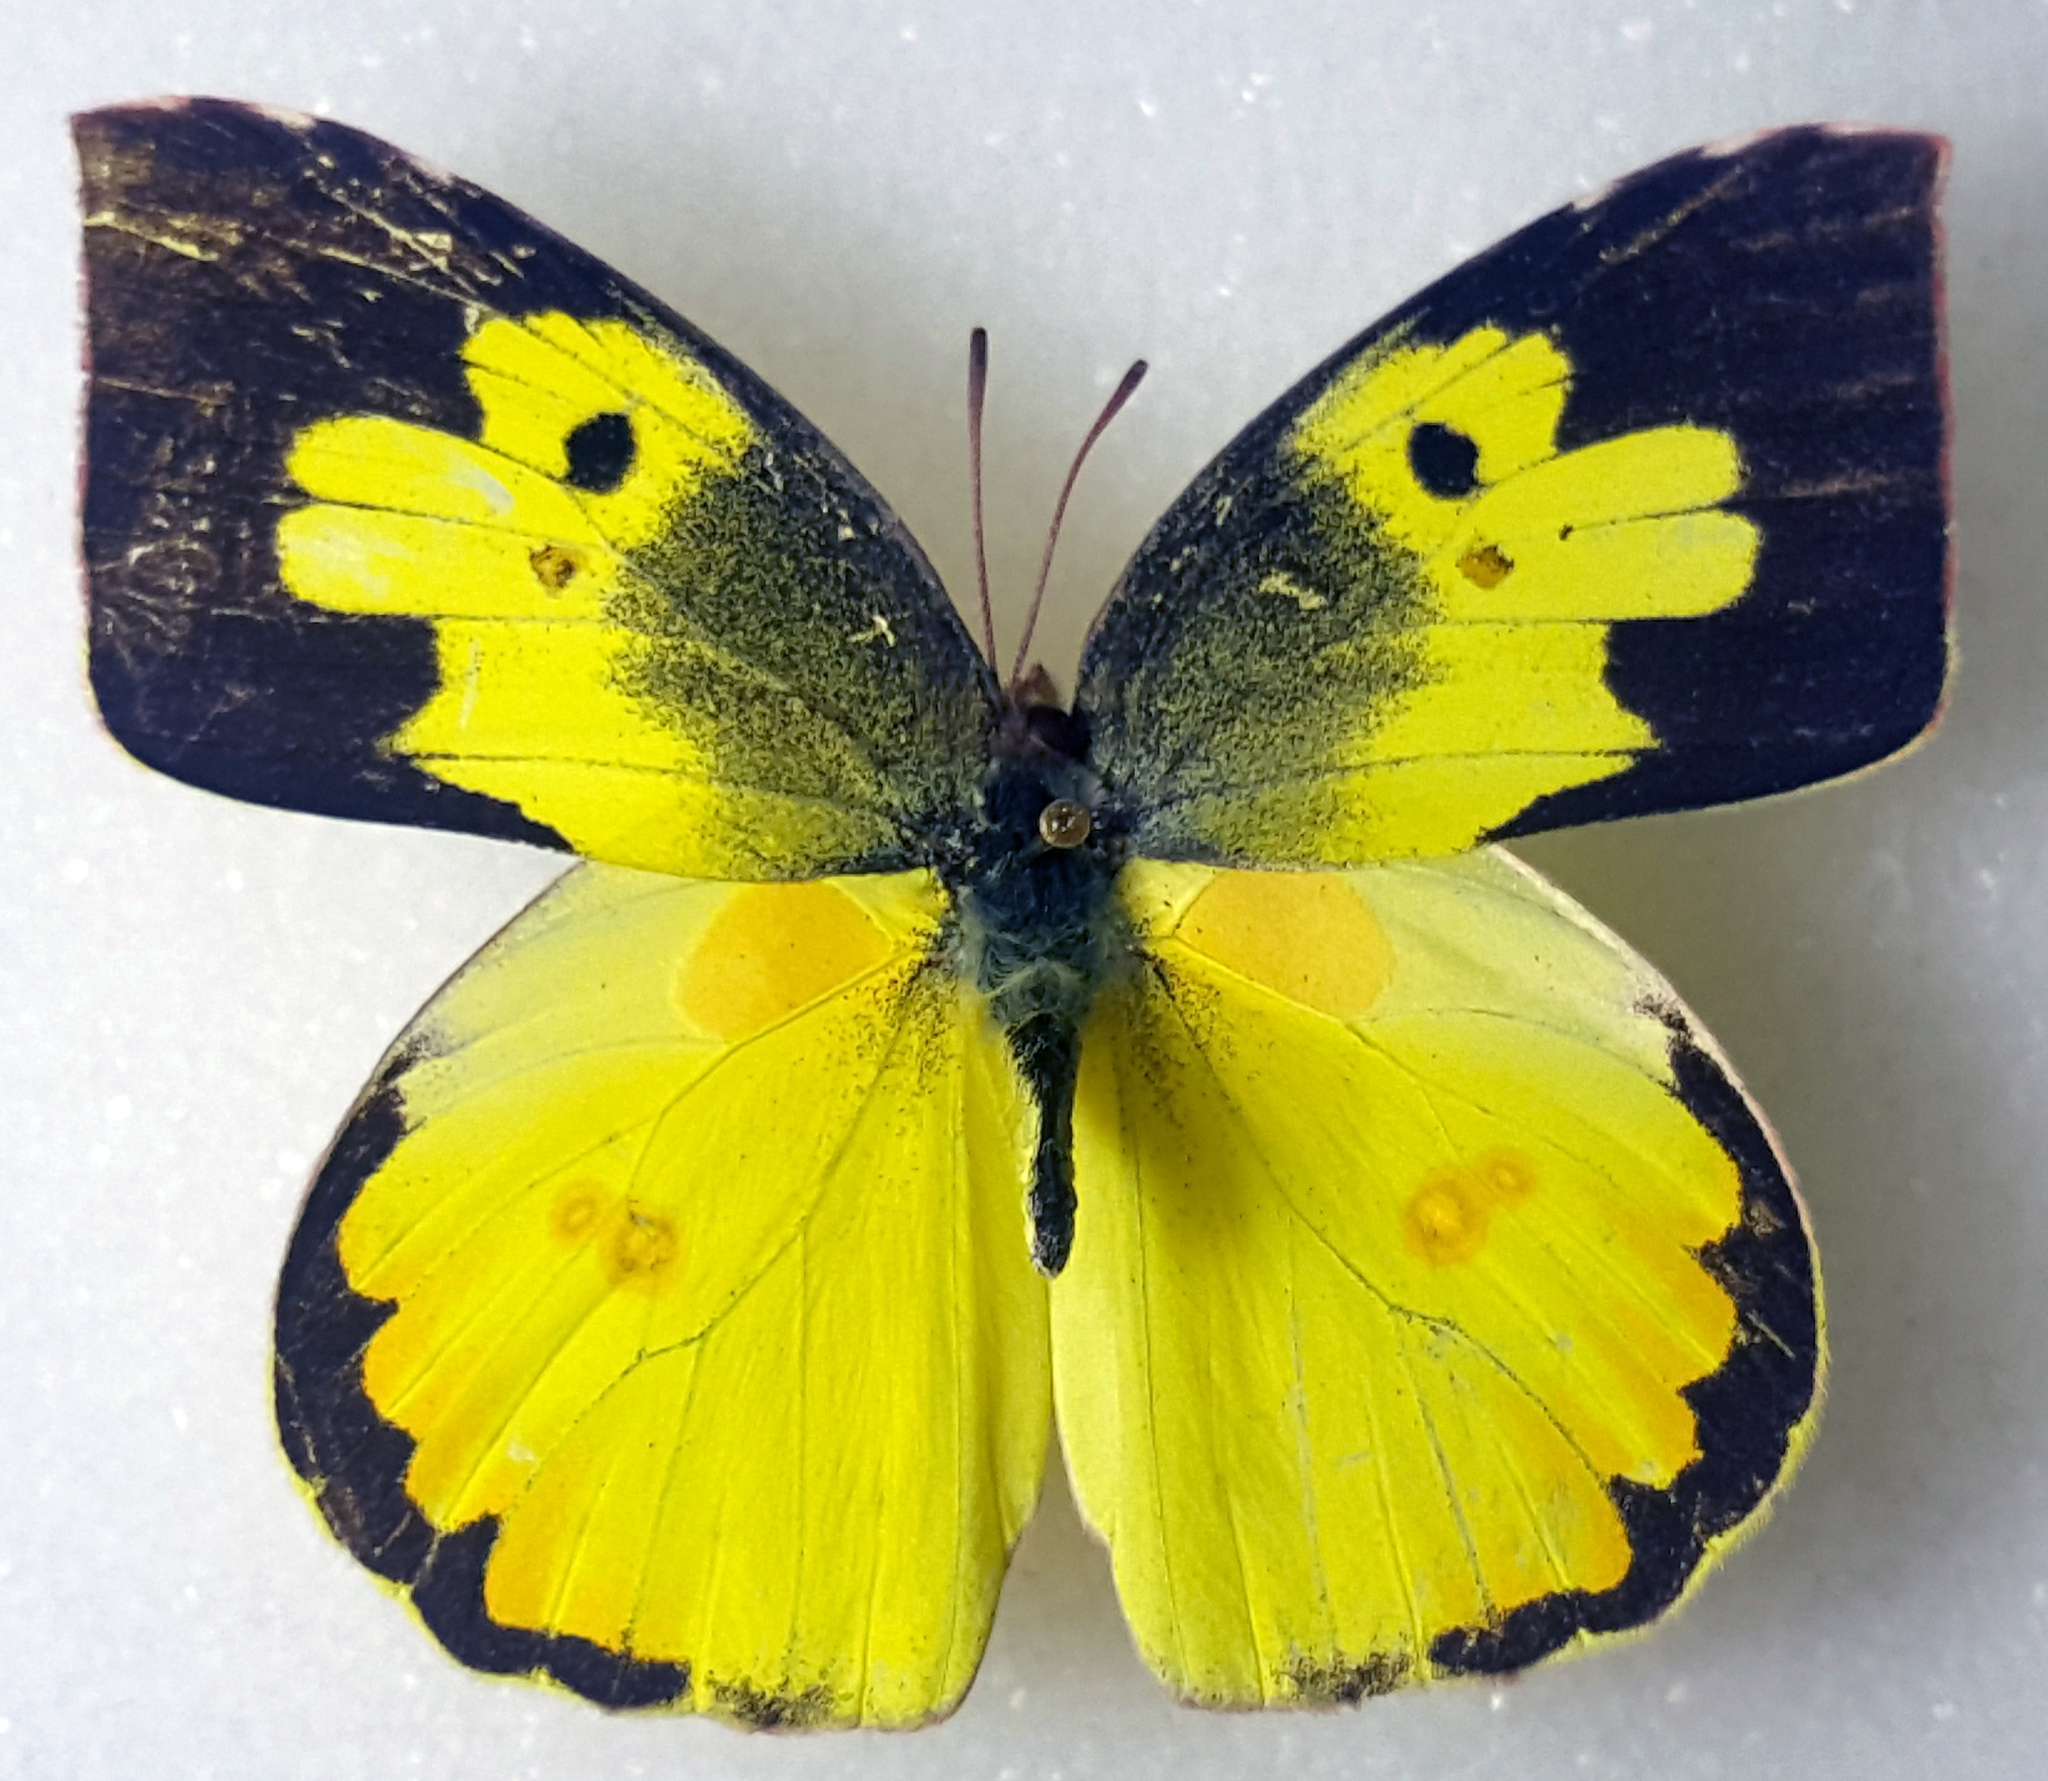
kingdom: Animalia
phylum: Arthropoda
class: Insecta
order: Lepidoptera
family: Pieridae
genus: Zerene
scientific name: Zerene cesonia
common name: Southern dogface
